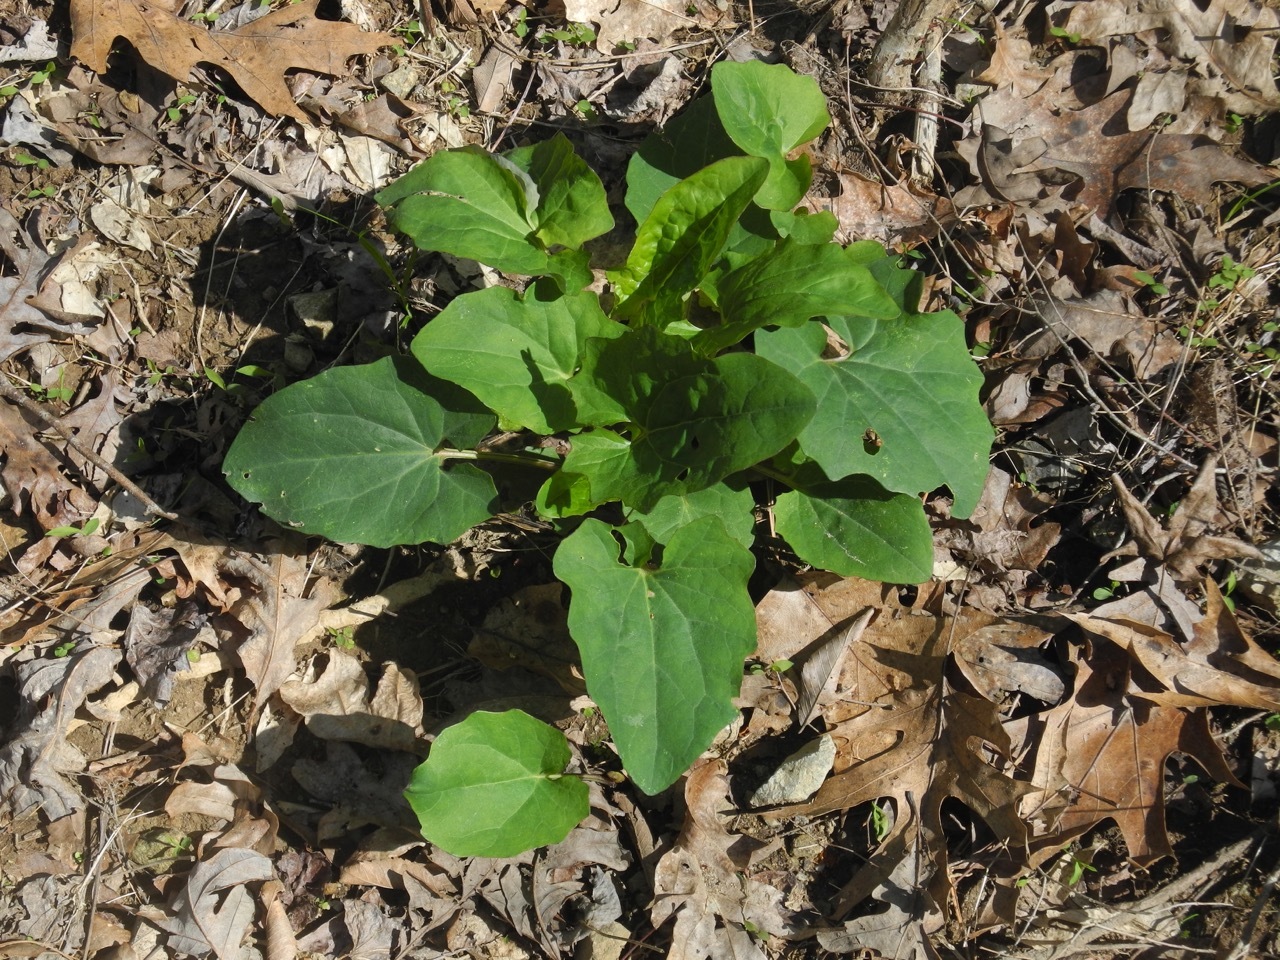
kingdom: Plantae
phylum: Tracheophyta
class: Magnoliopsida
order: Asterales
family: Asteraceae
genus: Arnoglossum
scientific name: Arnoglossum atriplicifolium
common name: Pale indian-plantain
